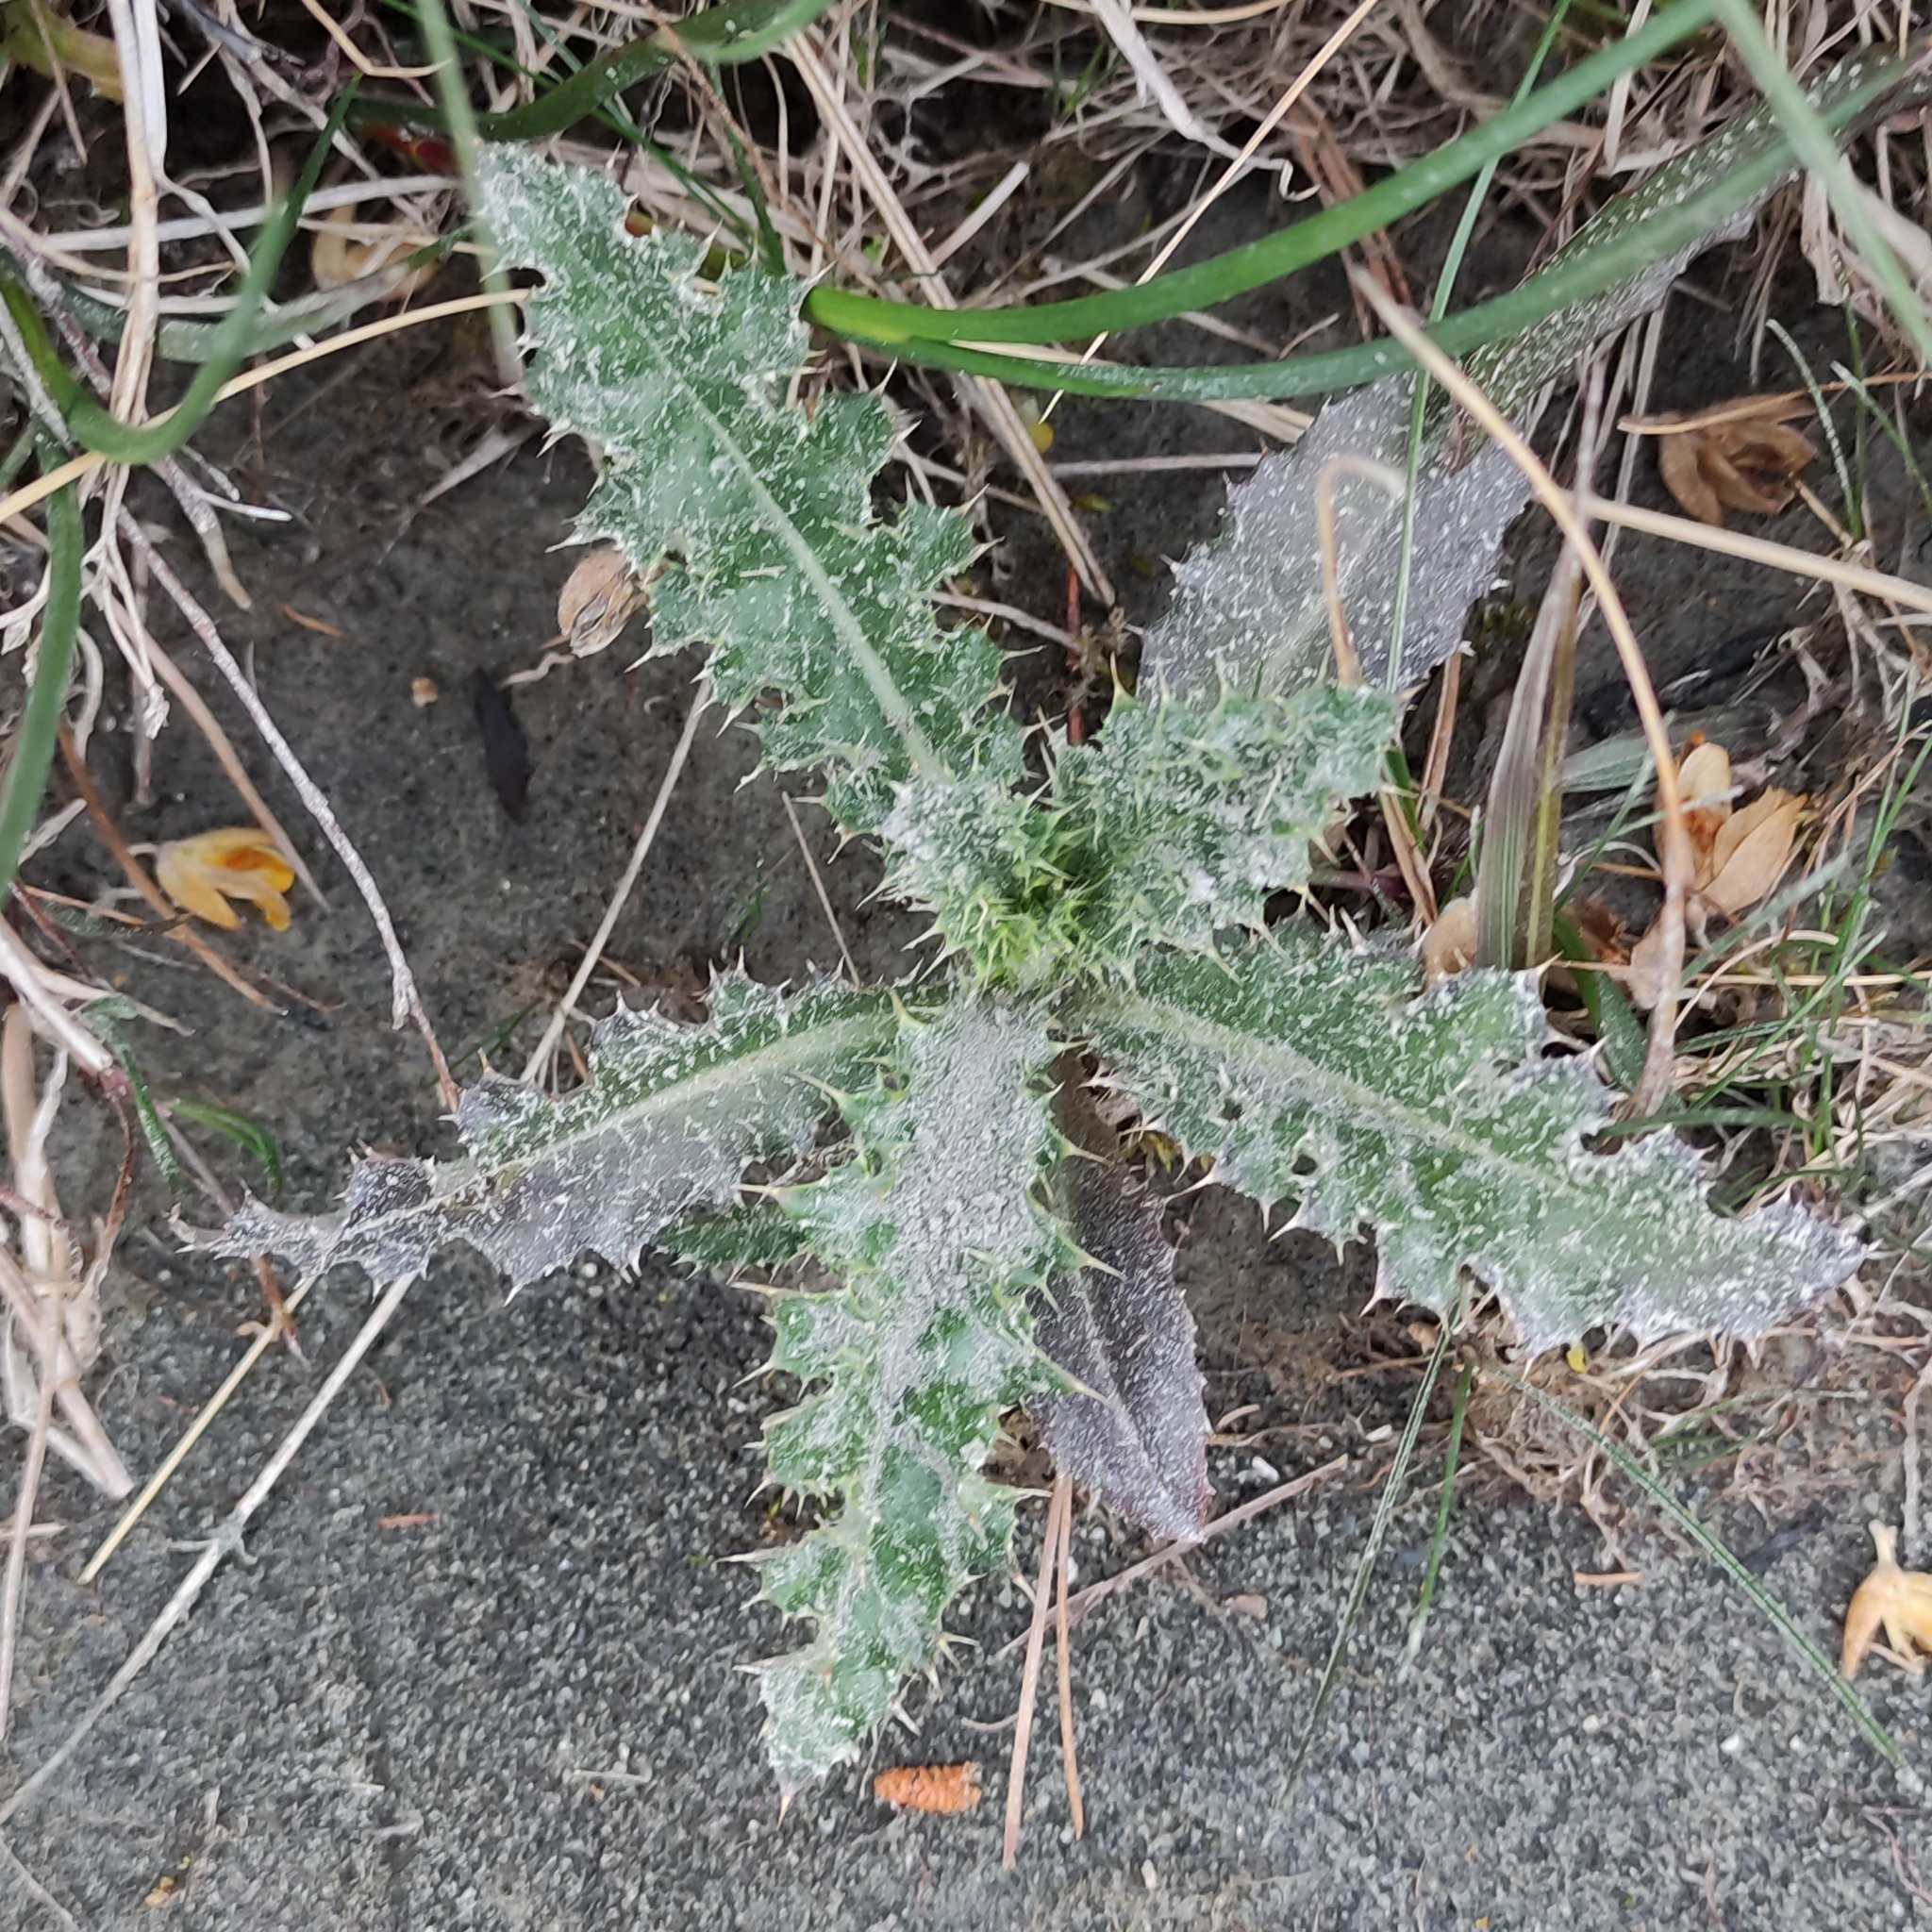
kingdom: Plantae
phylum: Tracheophyta
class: Magnoliopsida
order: Asterales
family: Asteraceae
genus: Cirsium
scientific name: Cirsium arvense
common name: Creeping thistle
